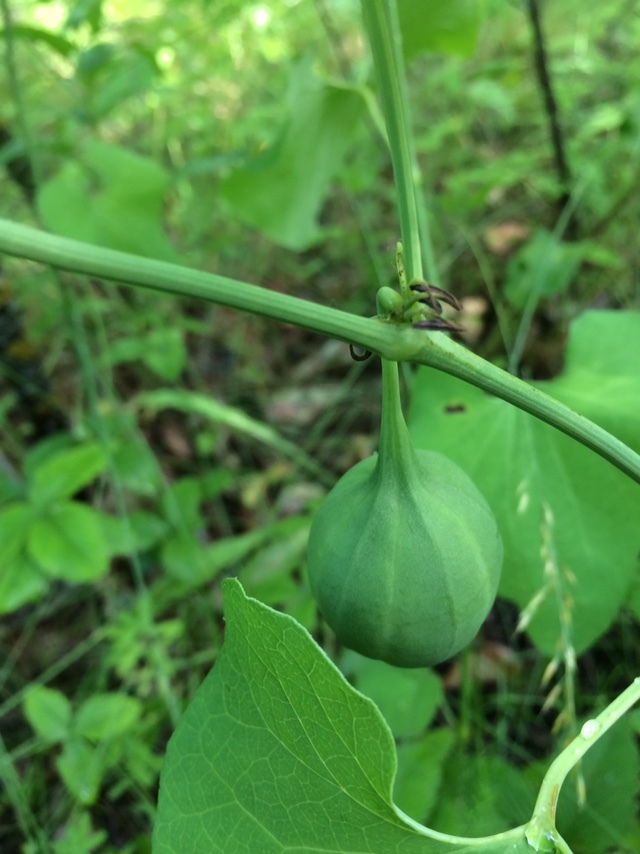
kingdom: Plantae
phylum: Tracheophyta
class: Magnoliopsida
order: Piperales
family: Aristolochiaceae
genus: Aristolochia
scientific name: Aristolochia clematitis
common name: Birthwort
